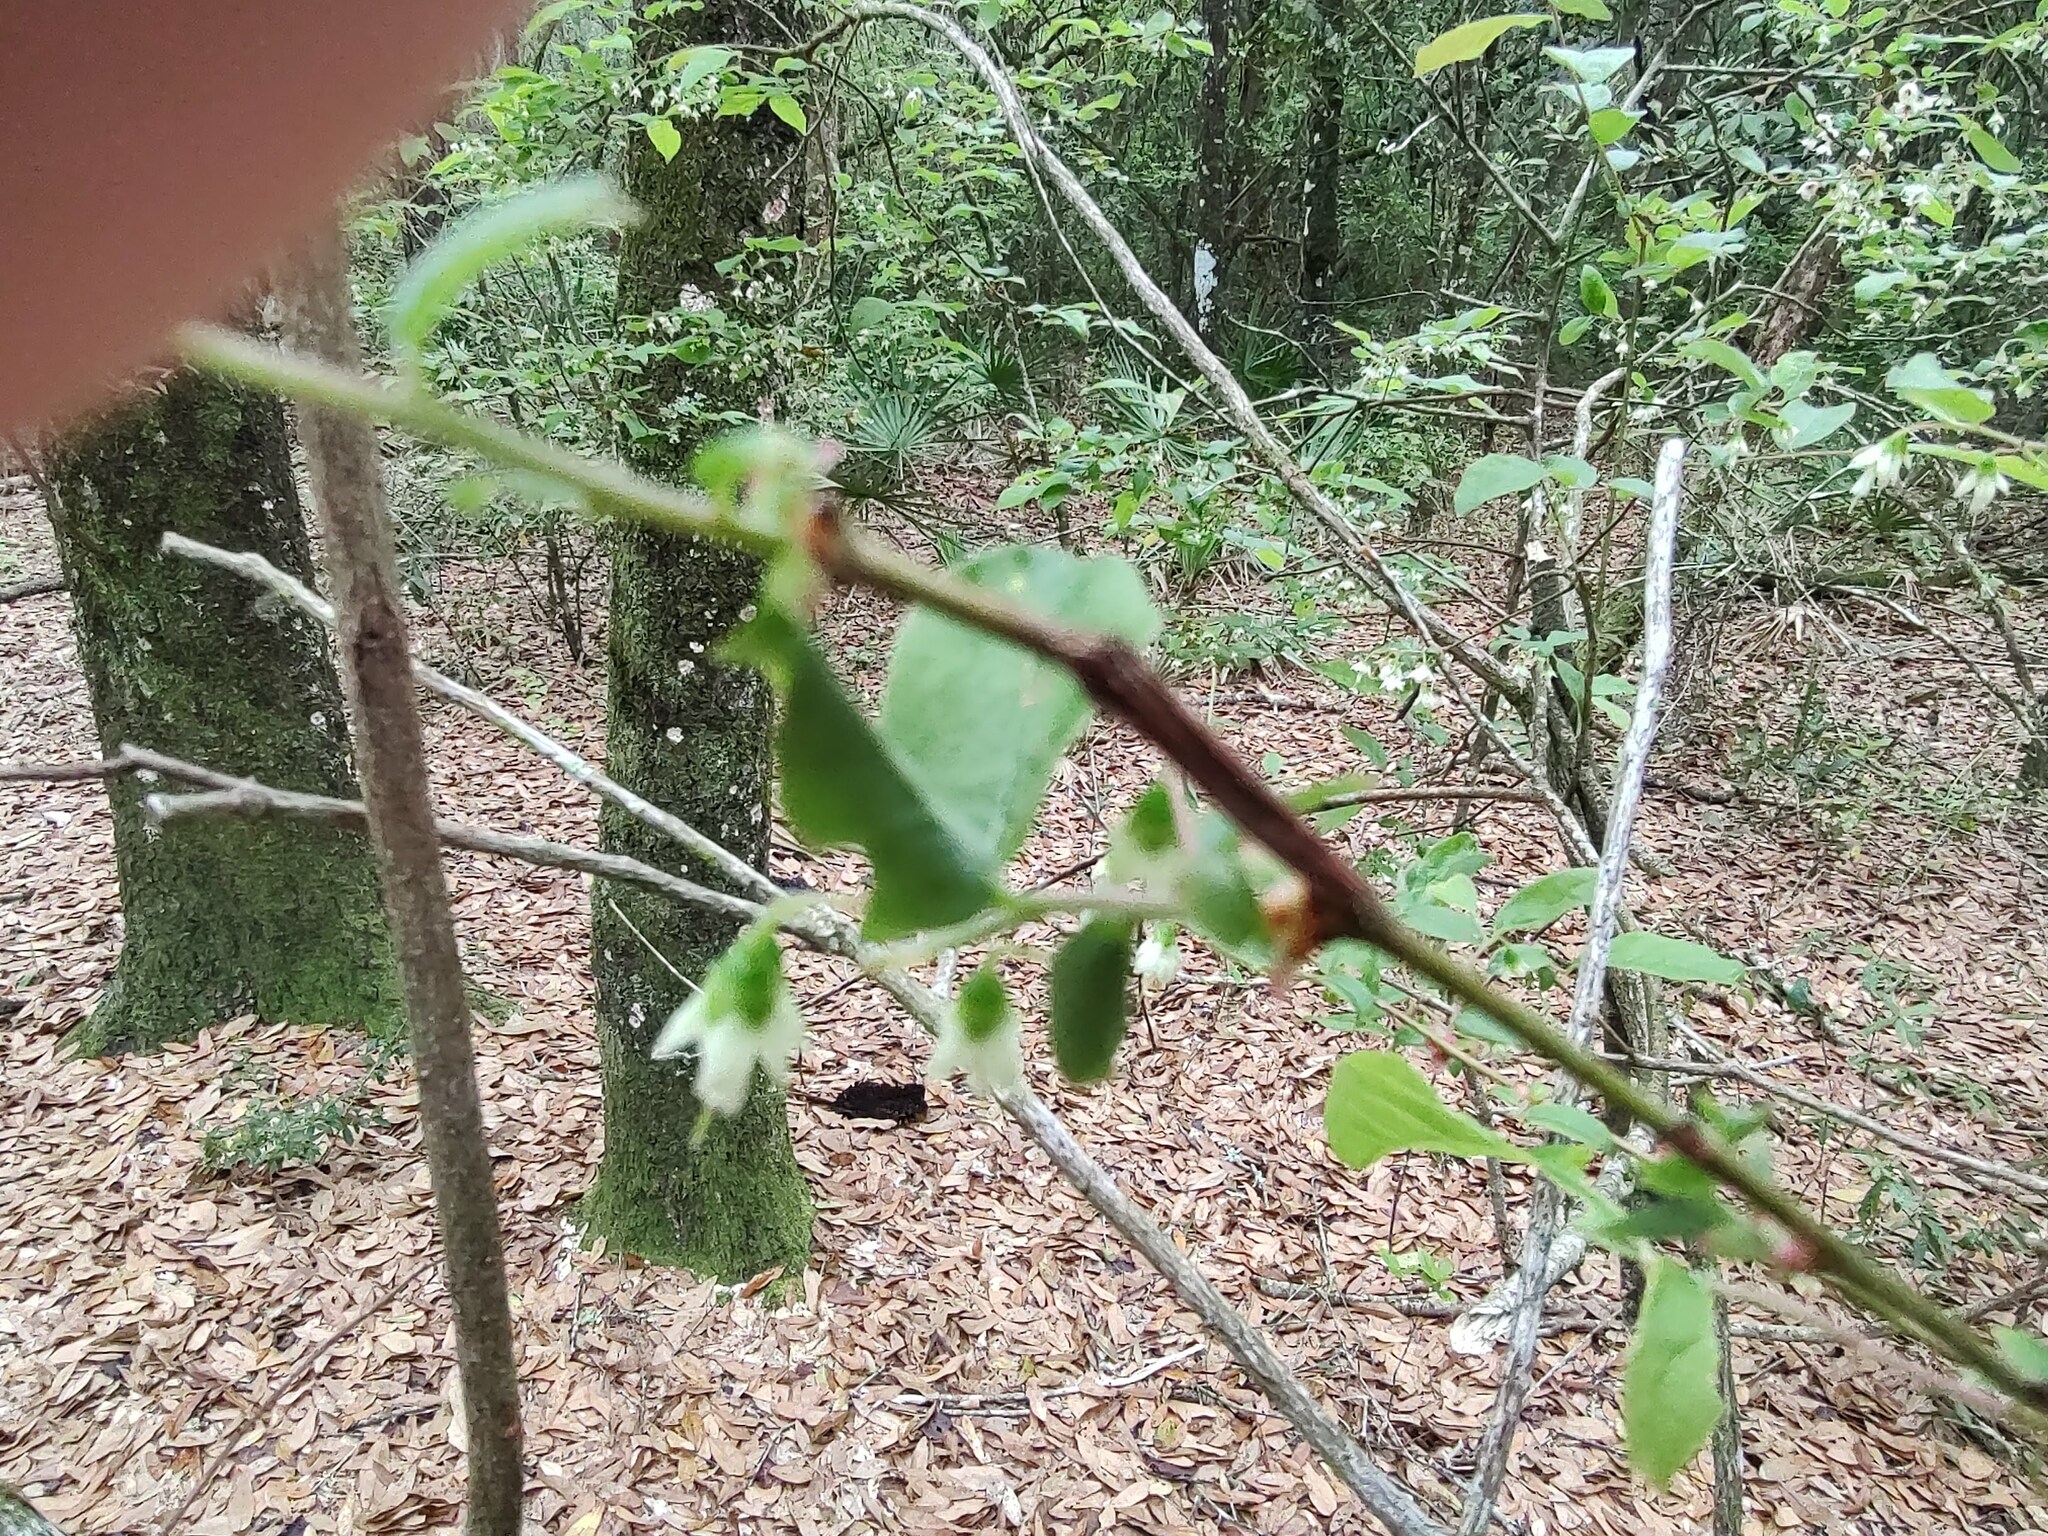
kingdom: Plantae
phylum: Tracheophyta
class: Magnoliopsida
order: Ericales
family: Ericaceae
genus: Vaccinium
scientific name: Vaccinium stamineum
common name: Deerberry
